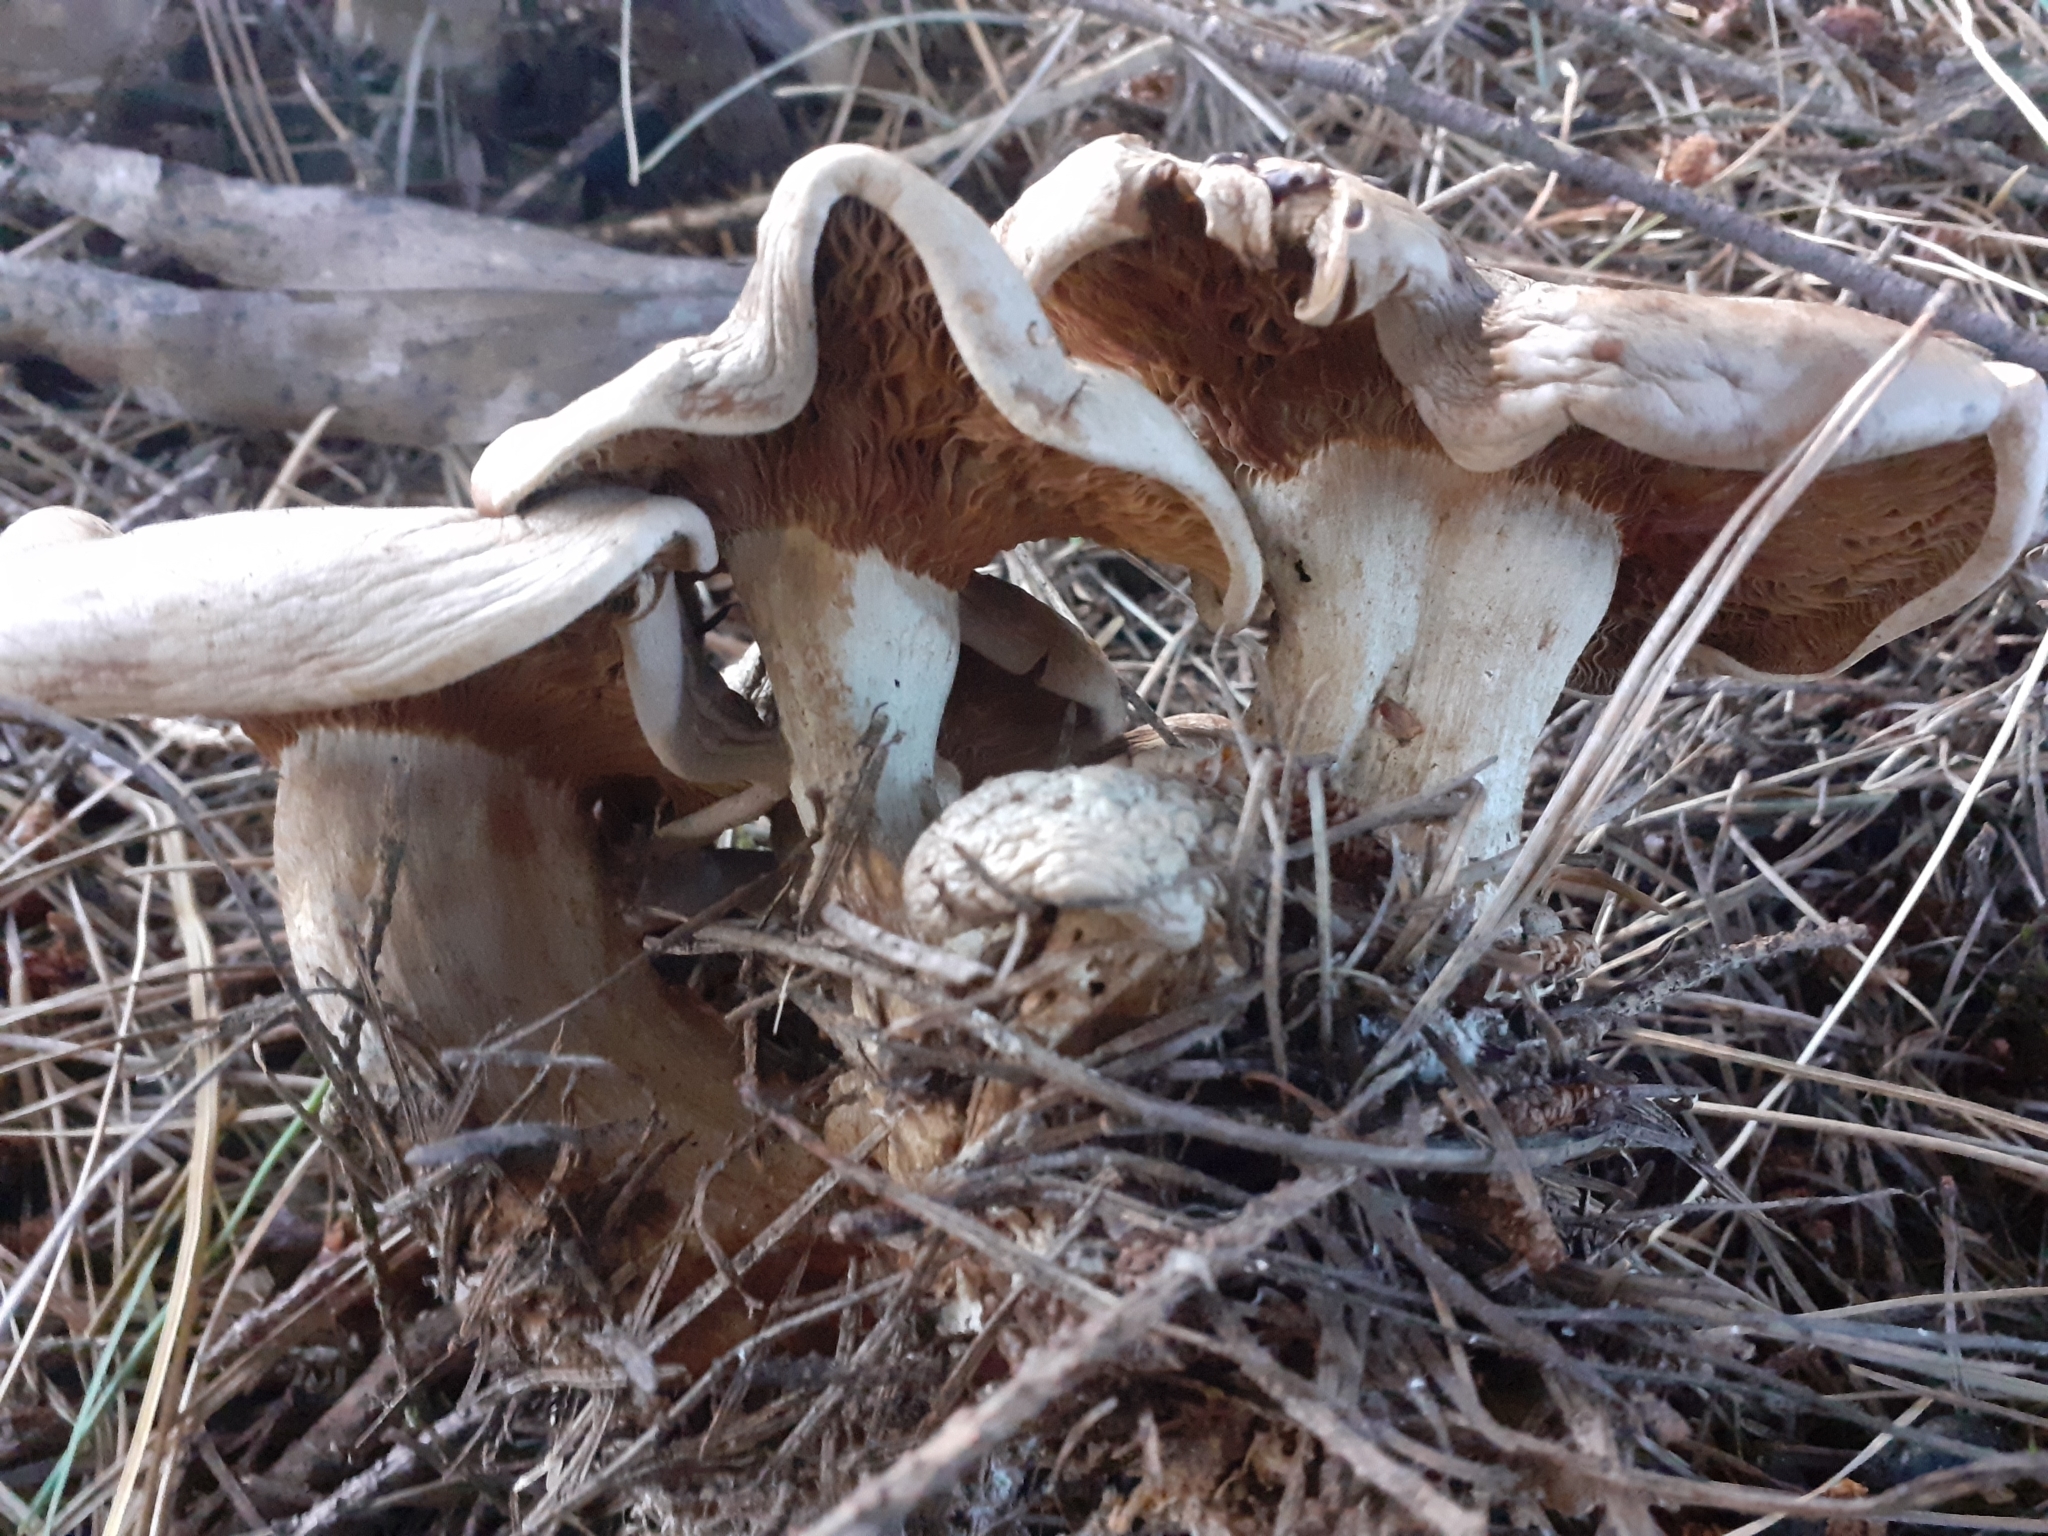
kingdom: Fungi
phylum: Basidiomycota
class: Agaricomycetes
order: Agaricales
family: Tricholomataceae
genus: Clitocybe
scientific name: Clitocybe nebularis
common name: Clouded agaric
